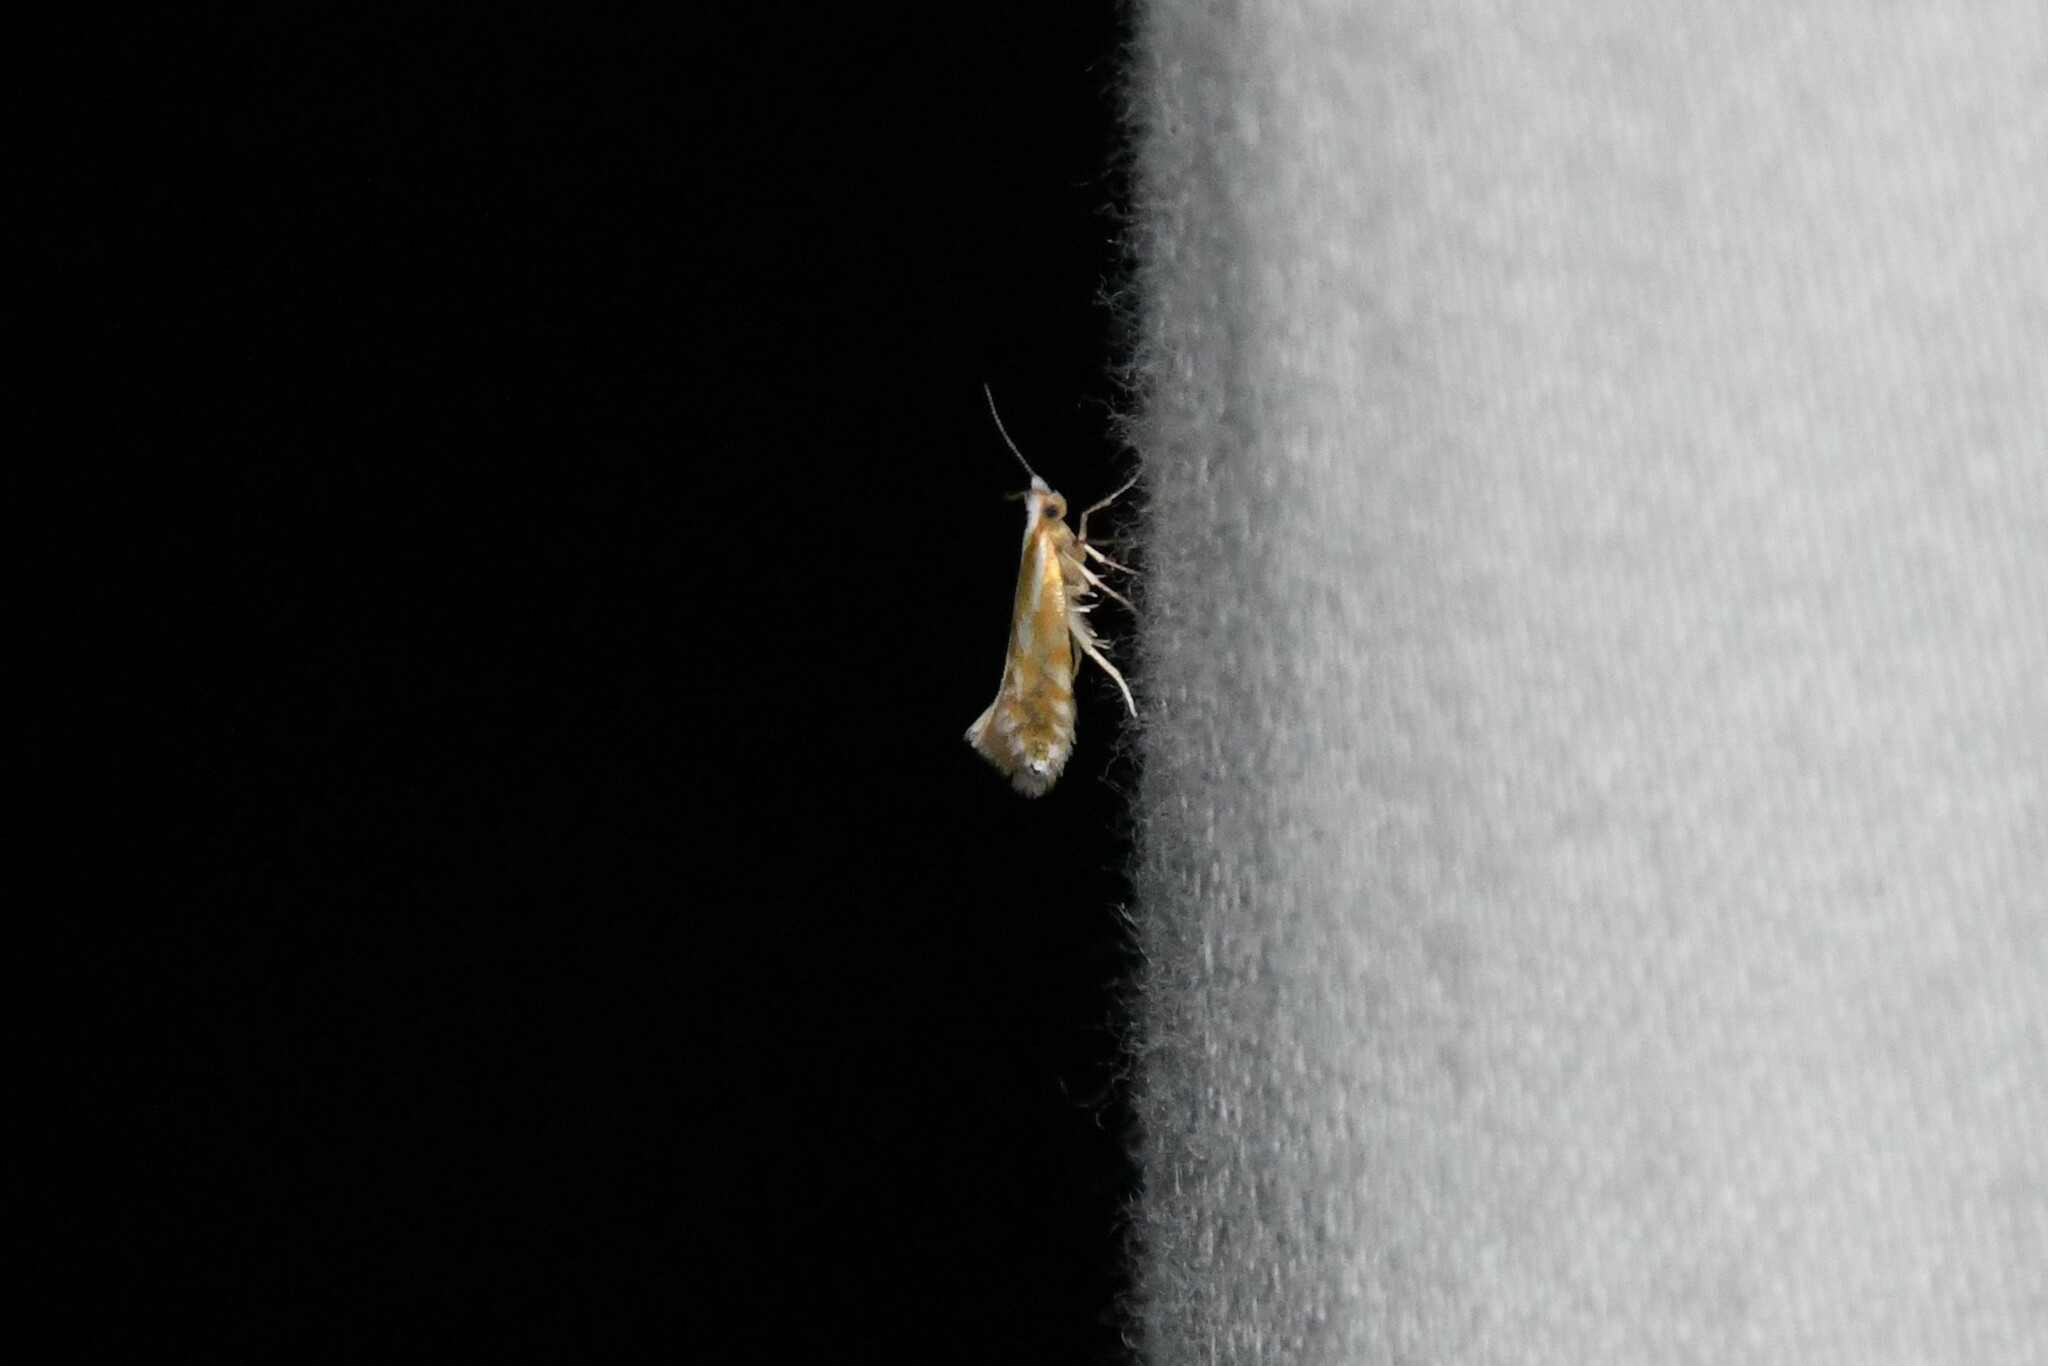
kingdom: Animalia
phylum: Arthropoda
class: Insecta
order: Lepidoptera
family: Argyresthiidae
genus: Argyresthia
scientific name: Argyresthia canadensis
